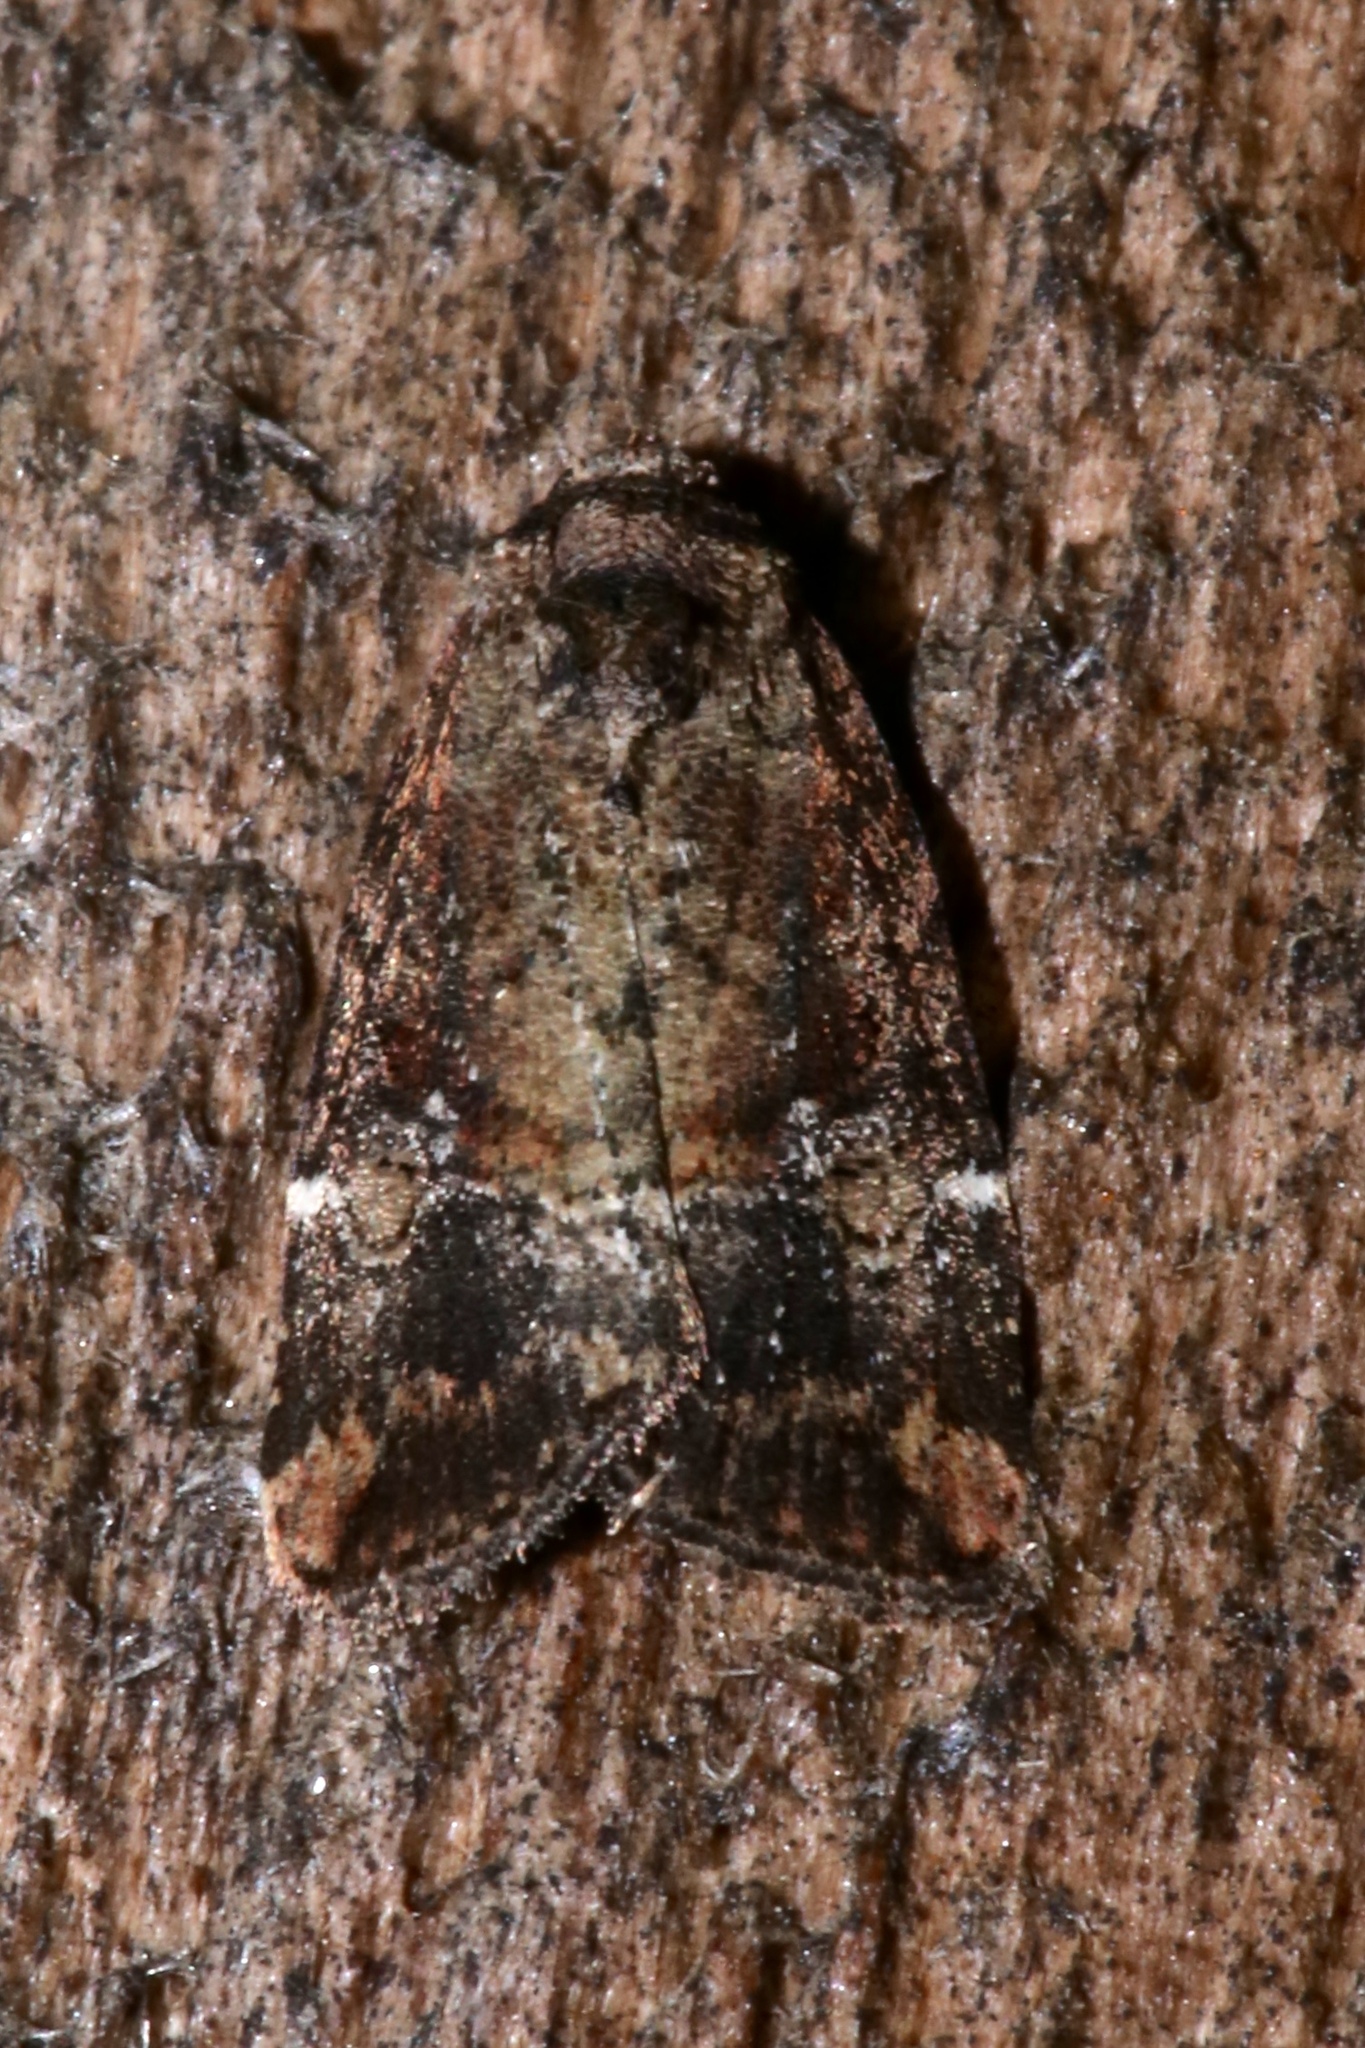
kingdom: Animalia
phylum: Arthropoda
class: Insecta
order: Lepidoptera
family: Noctuidae
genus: Elaphria
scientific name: Elaphria versicolor
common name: Fir harlequin
